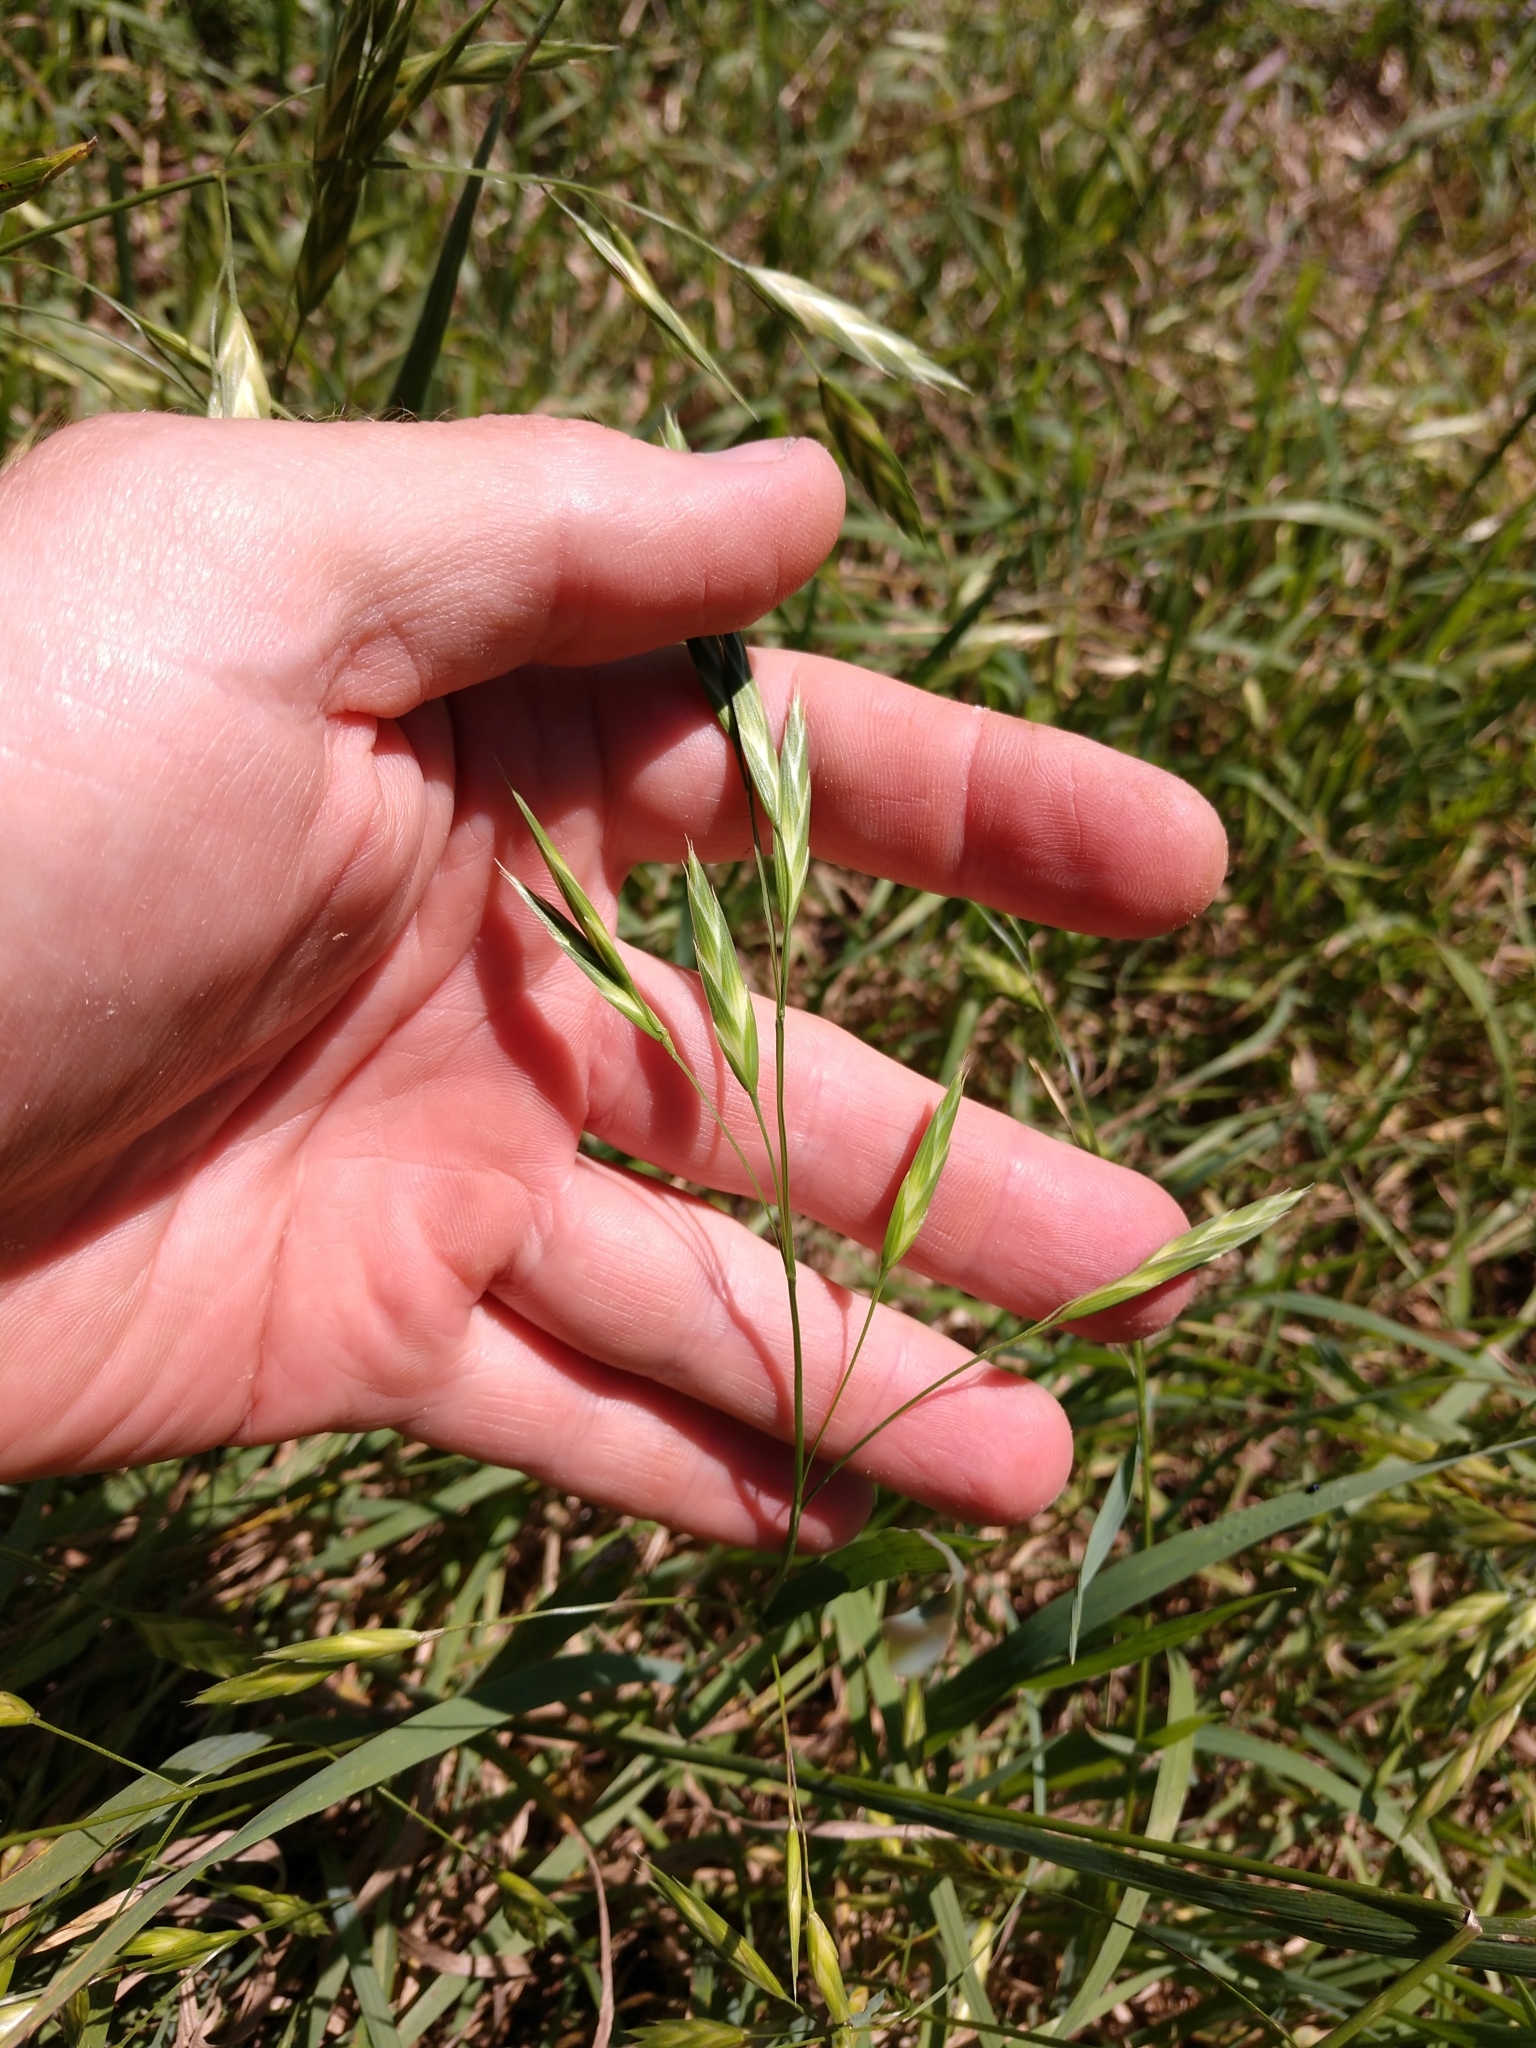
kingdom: Plantae
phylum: Tracheophyta
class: Liliopsida
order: Poales
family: Poaceae
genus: Bromus
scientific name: Bromus catharticus
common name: Rescuegrass
